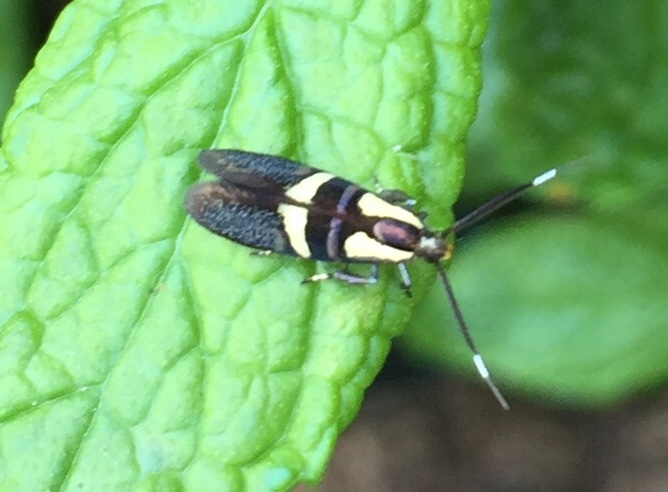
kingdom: Animalia
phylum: Arthropoda
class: Insecta
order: Lepidoptera
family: Oecophoridae
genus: Dafa
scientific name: Dafa oliviella
